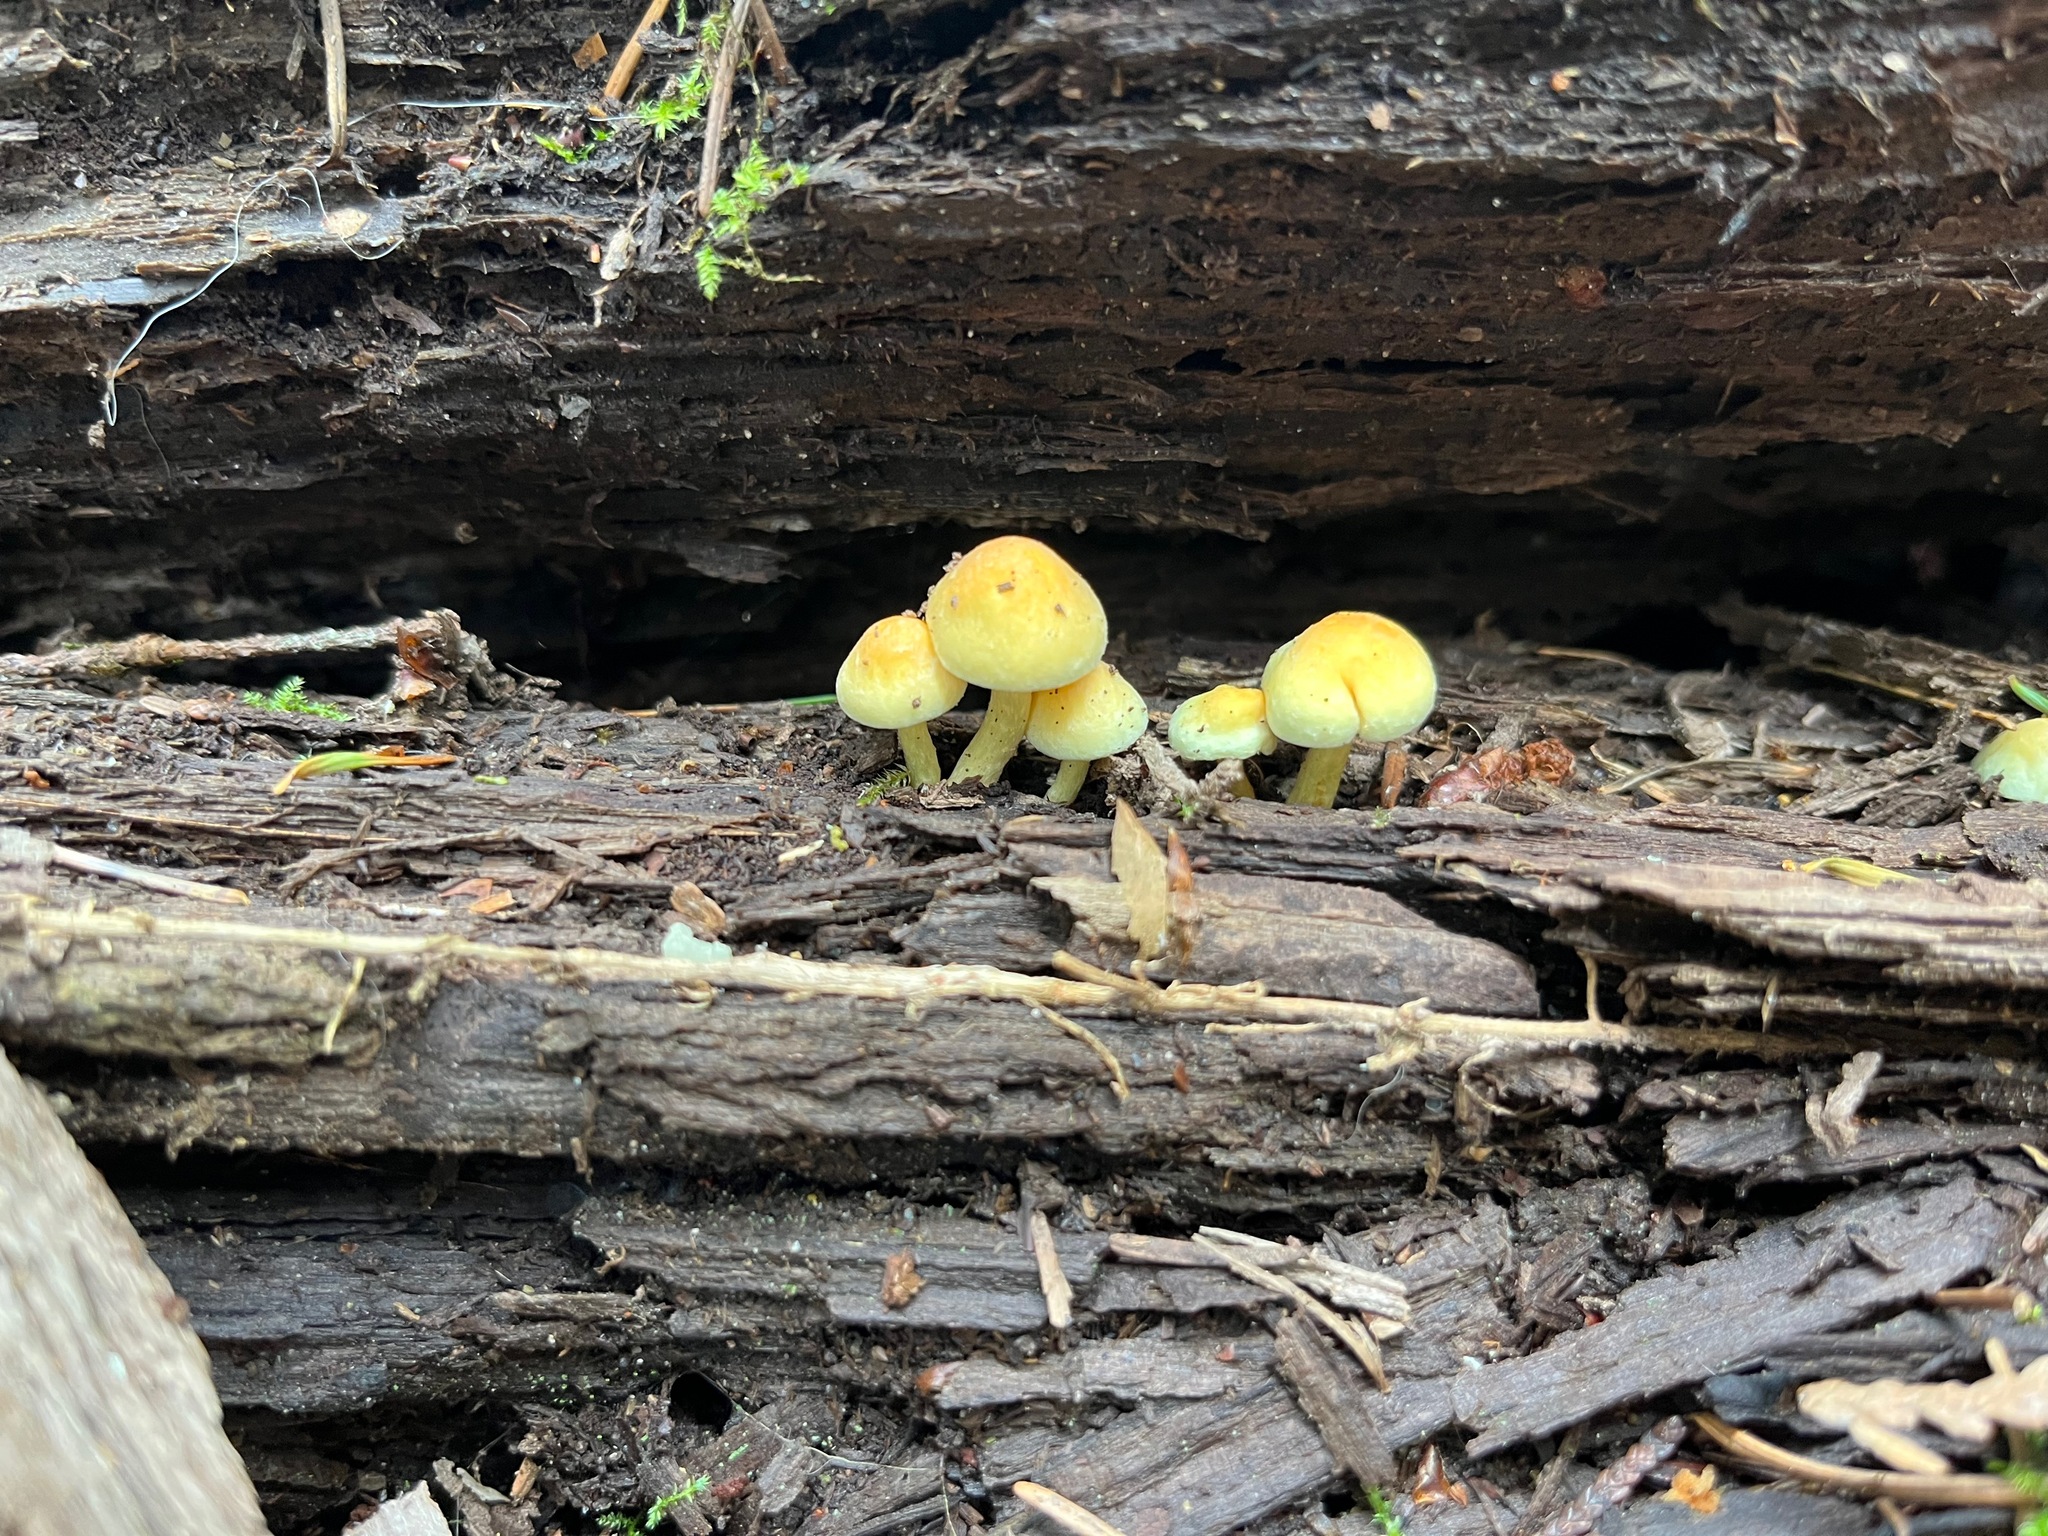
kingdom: Fungi
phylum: Basidiomycota
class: Agaricomycetes
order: Agaricales
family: Strophariaceae
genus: Hypholoma
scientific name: Hypholoma fasciculare
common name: Sulphur tuft
